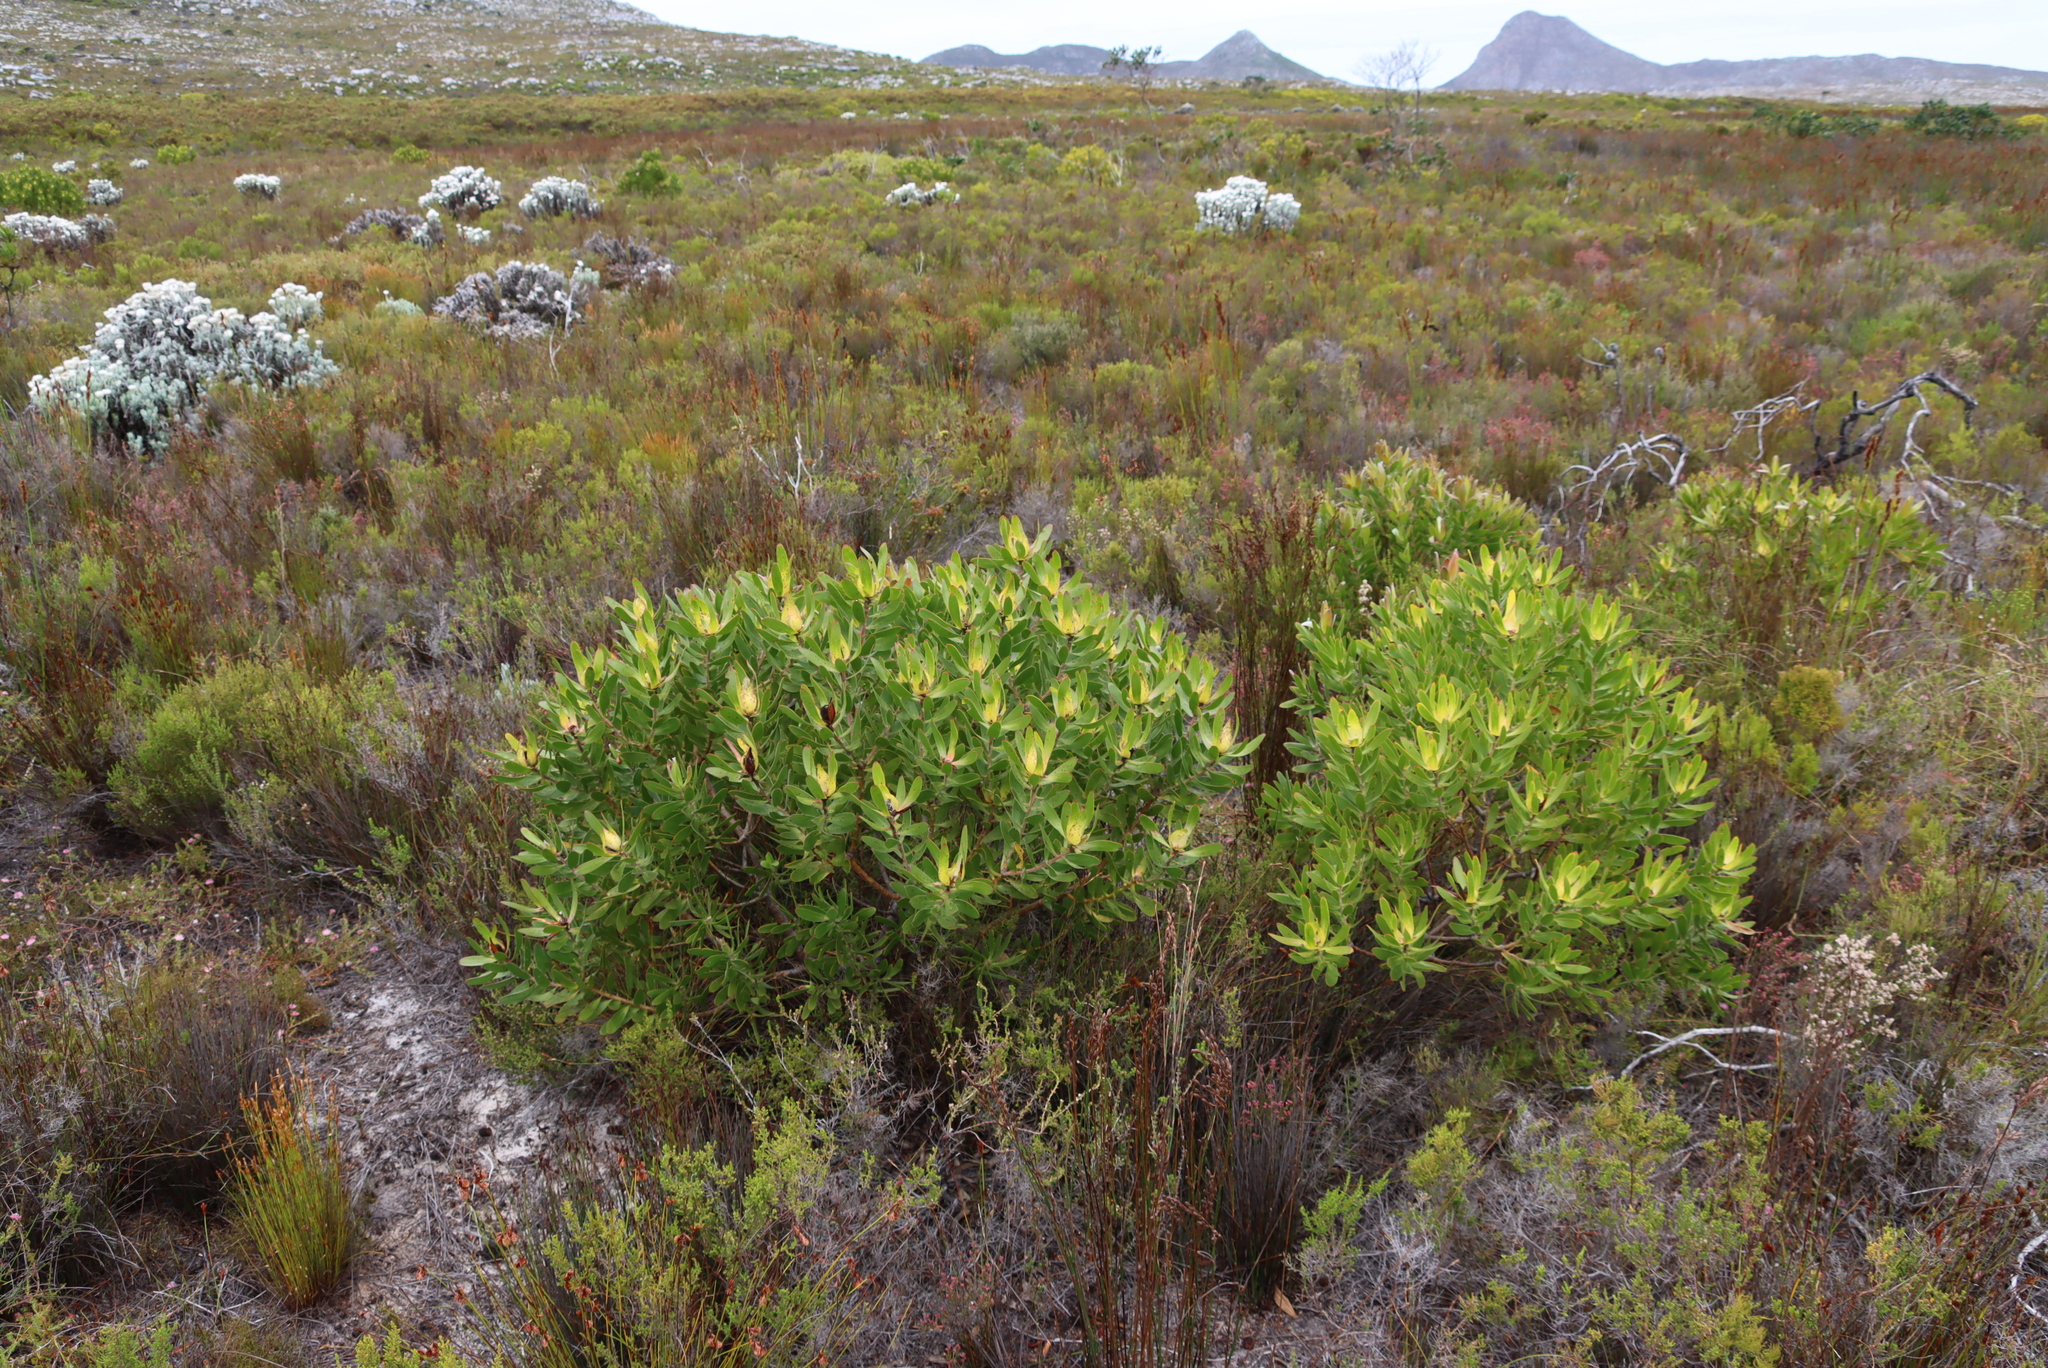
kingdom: Plantae
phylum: Tracheophyta
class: Magnoliopsida
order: Proteales
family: Proteaceae
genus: Leucadendron
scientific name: Leucadendron laureolum
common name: Golden sunshinebush
